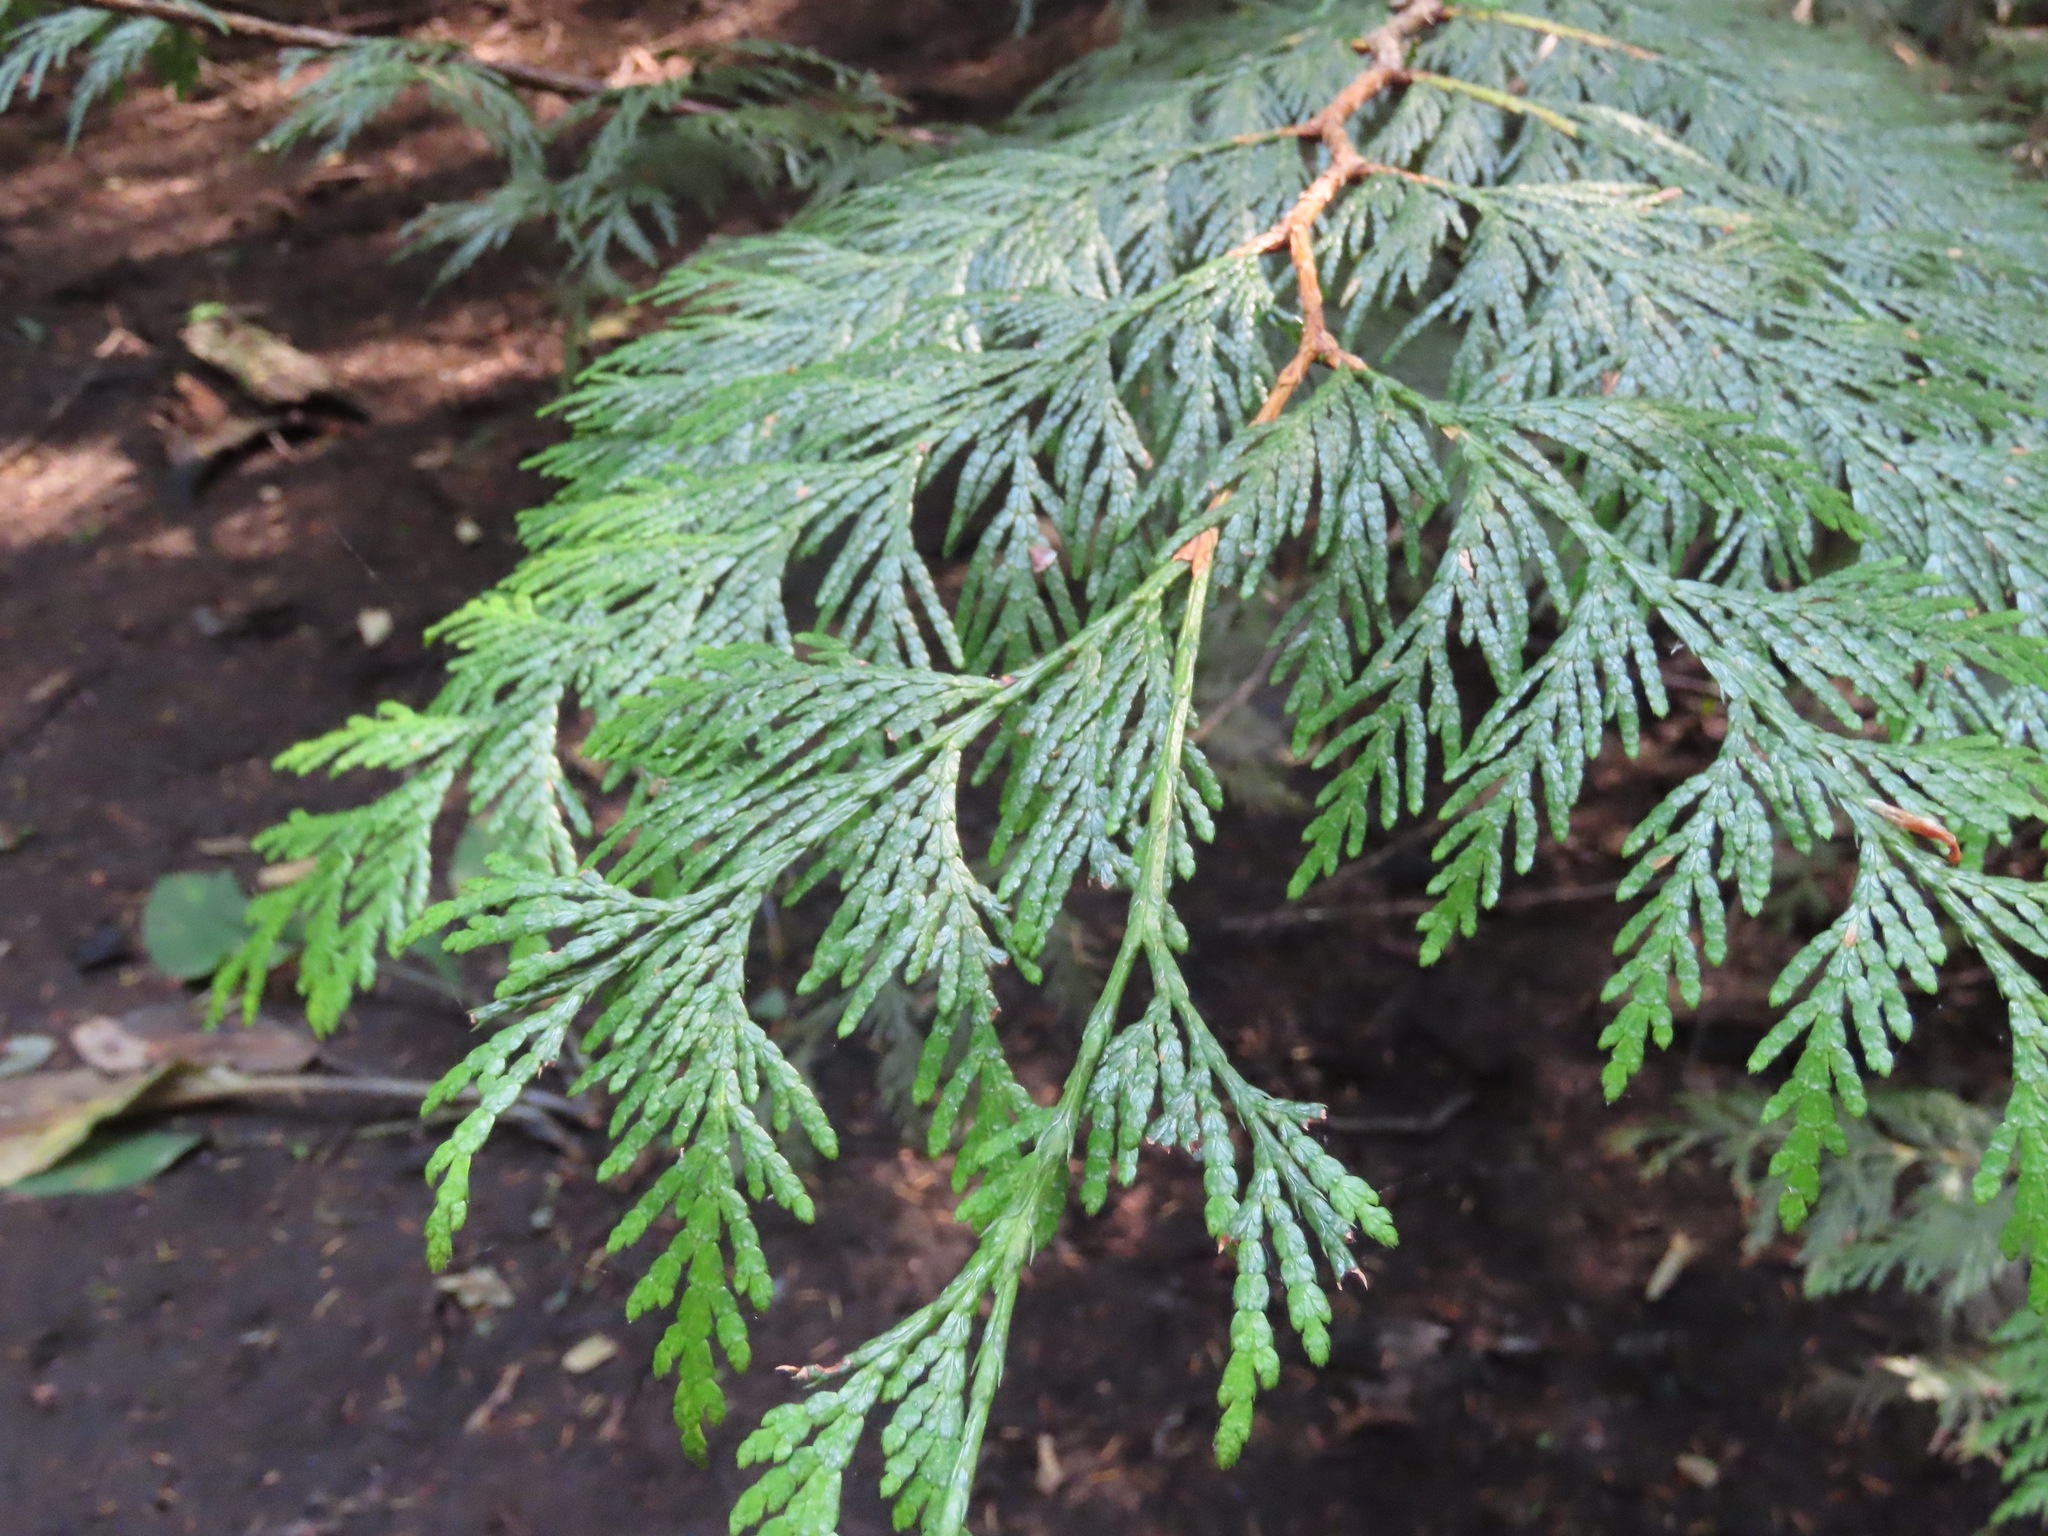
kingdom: Plantae
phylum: Tracheophyta
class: Pinopsida
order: Pinales
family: Cupressaceae
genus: Thuja
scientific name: Thuja plicata
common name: Western red-cedar
